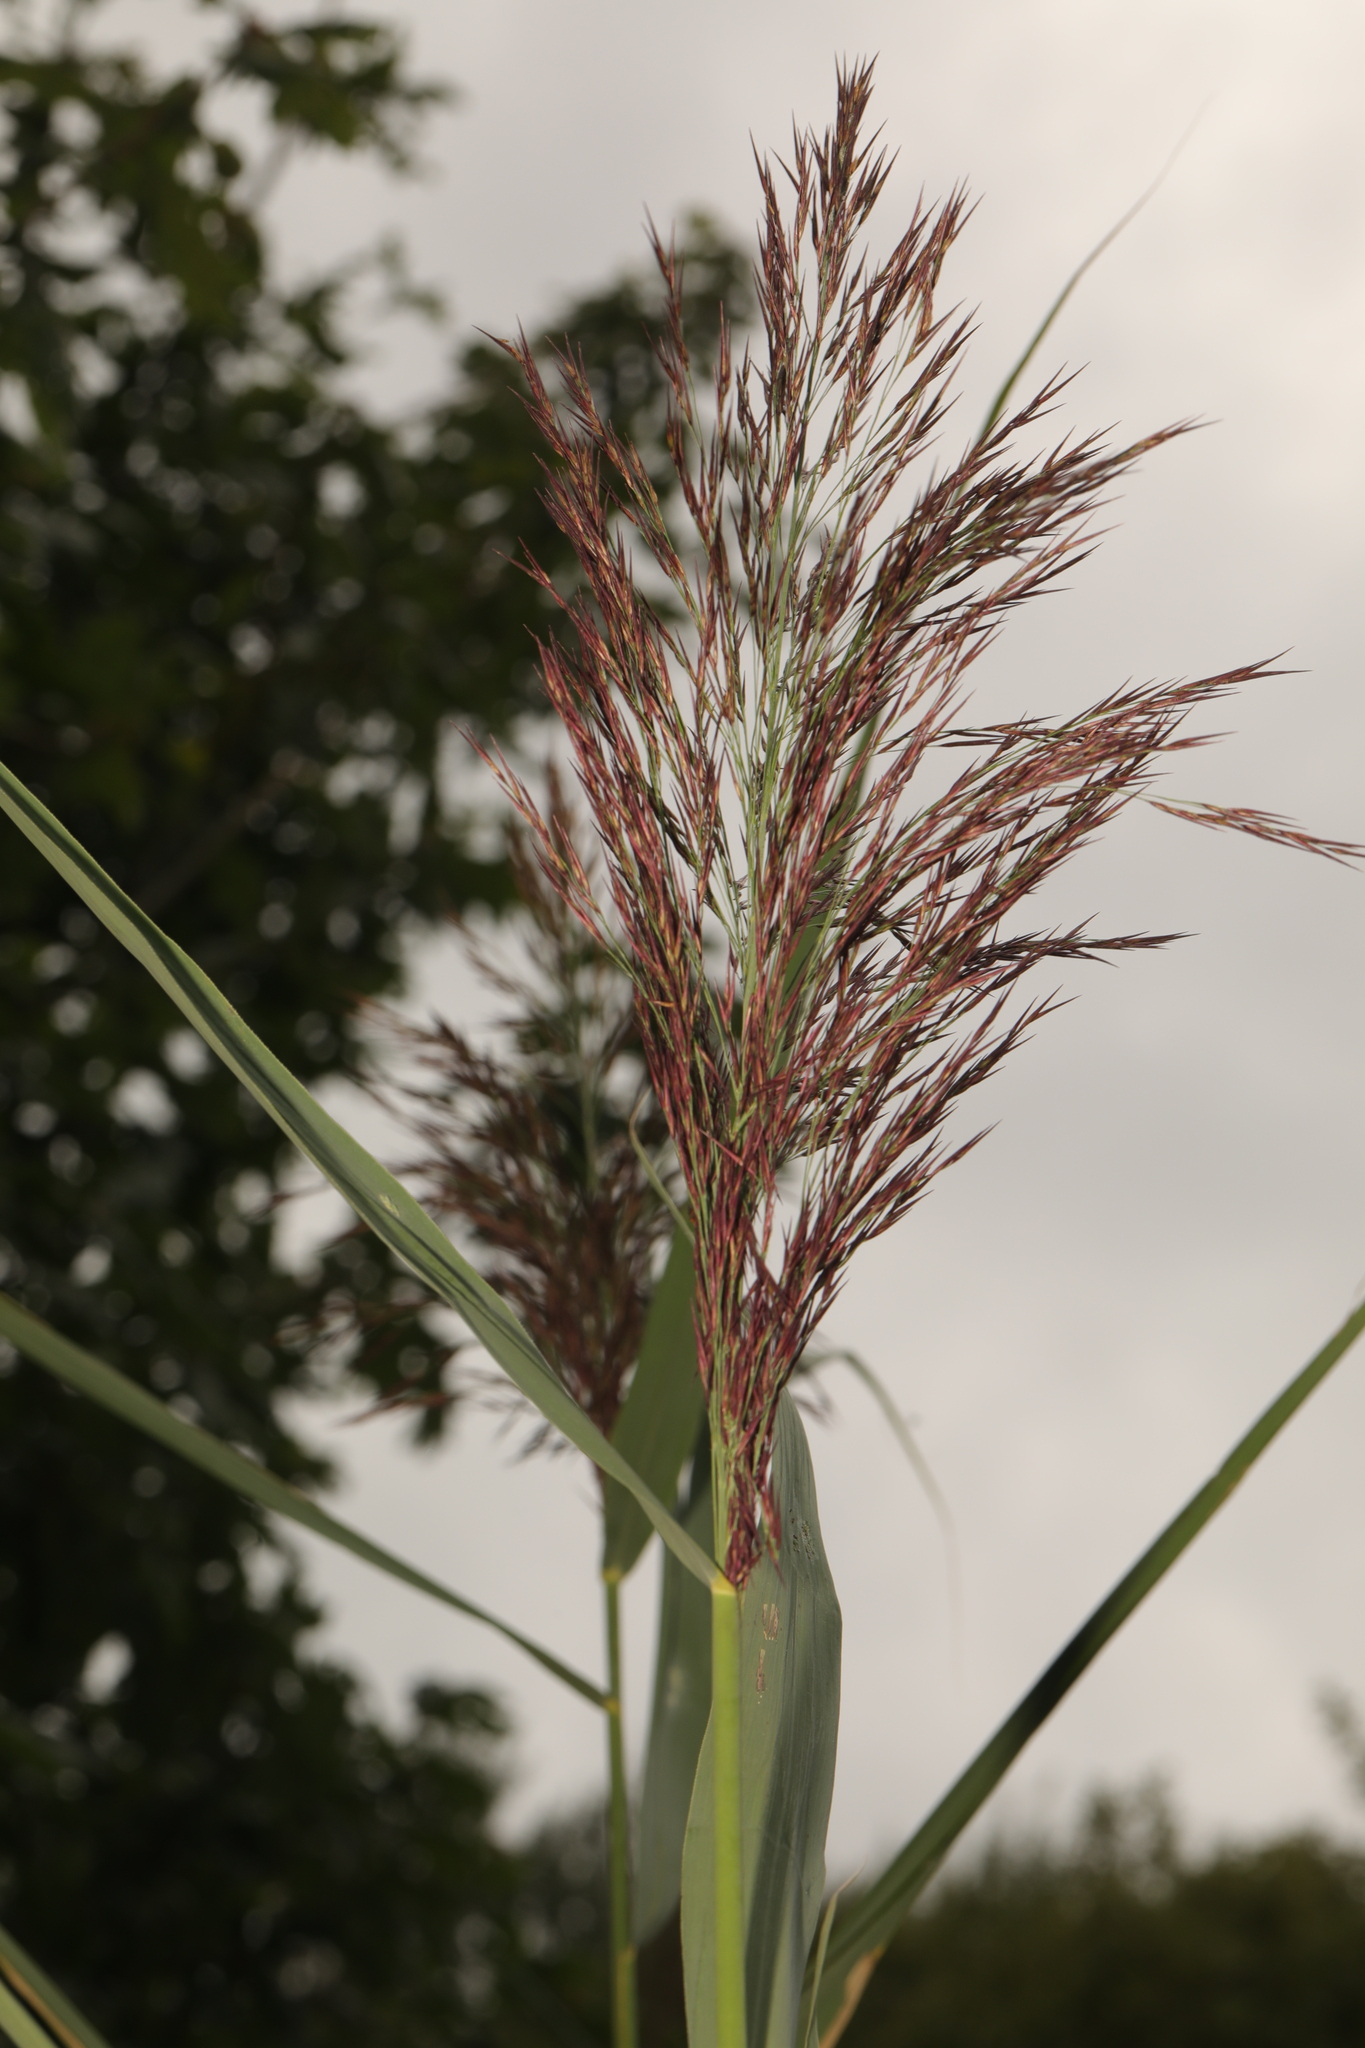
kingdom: Plantae
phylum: Tracheophyta
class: Liliopsida
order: Poales
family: Poaceae
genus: Phragmites
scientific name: Phragmites australis
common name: Common reed
